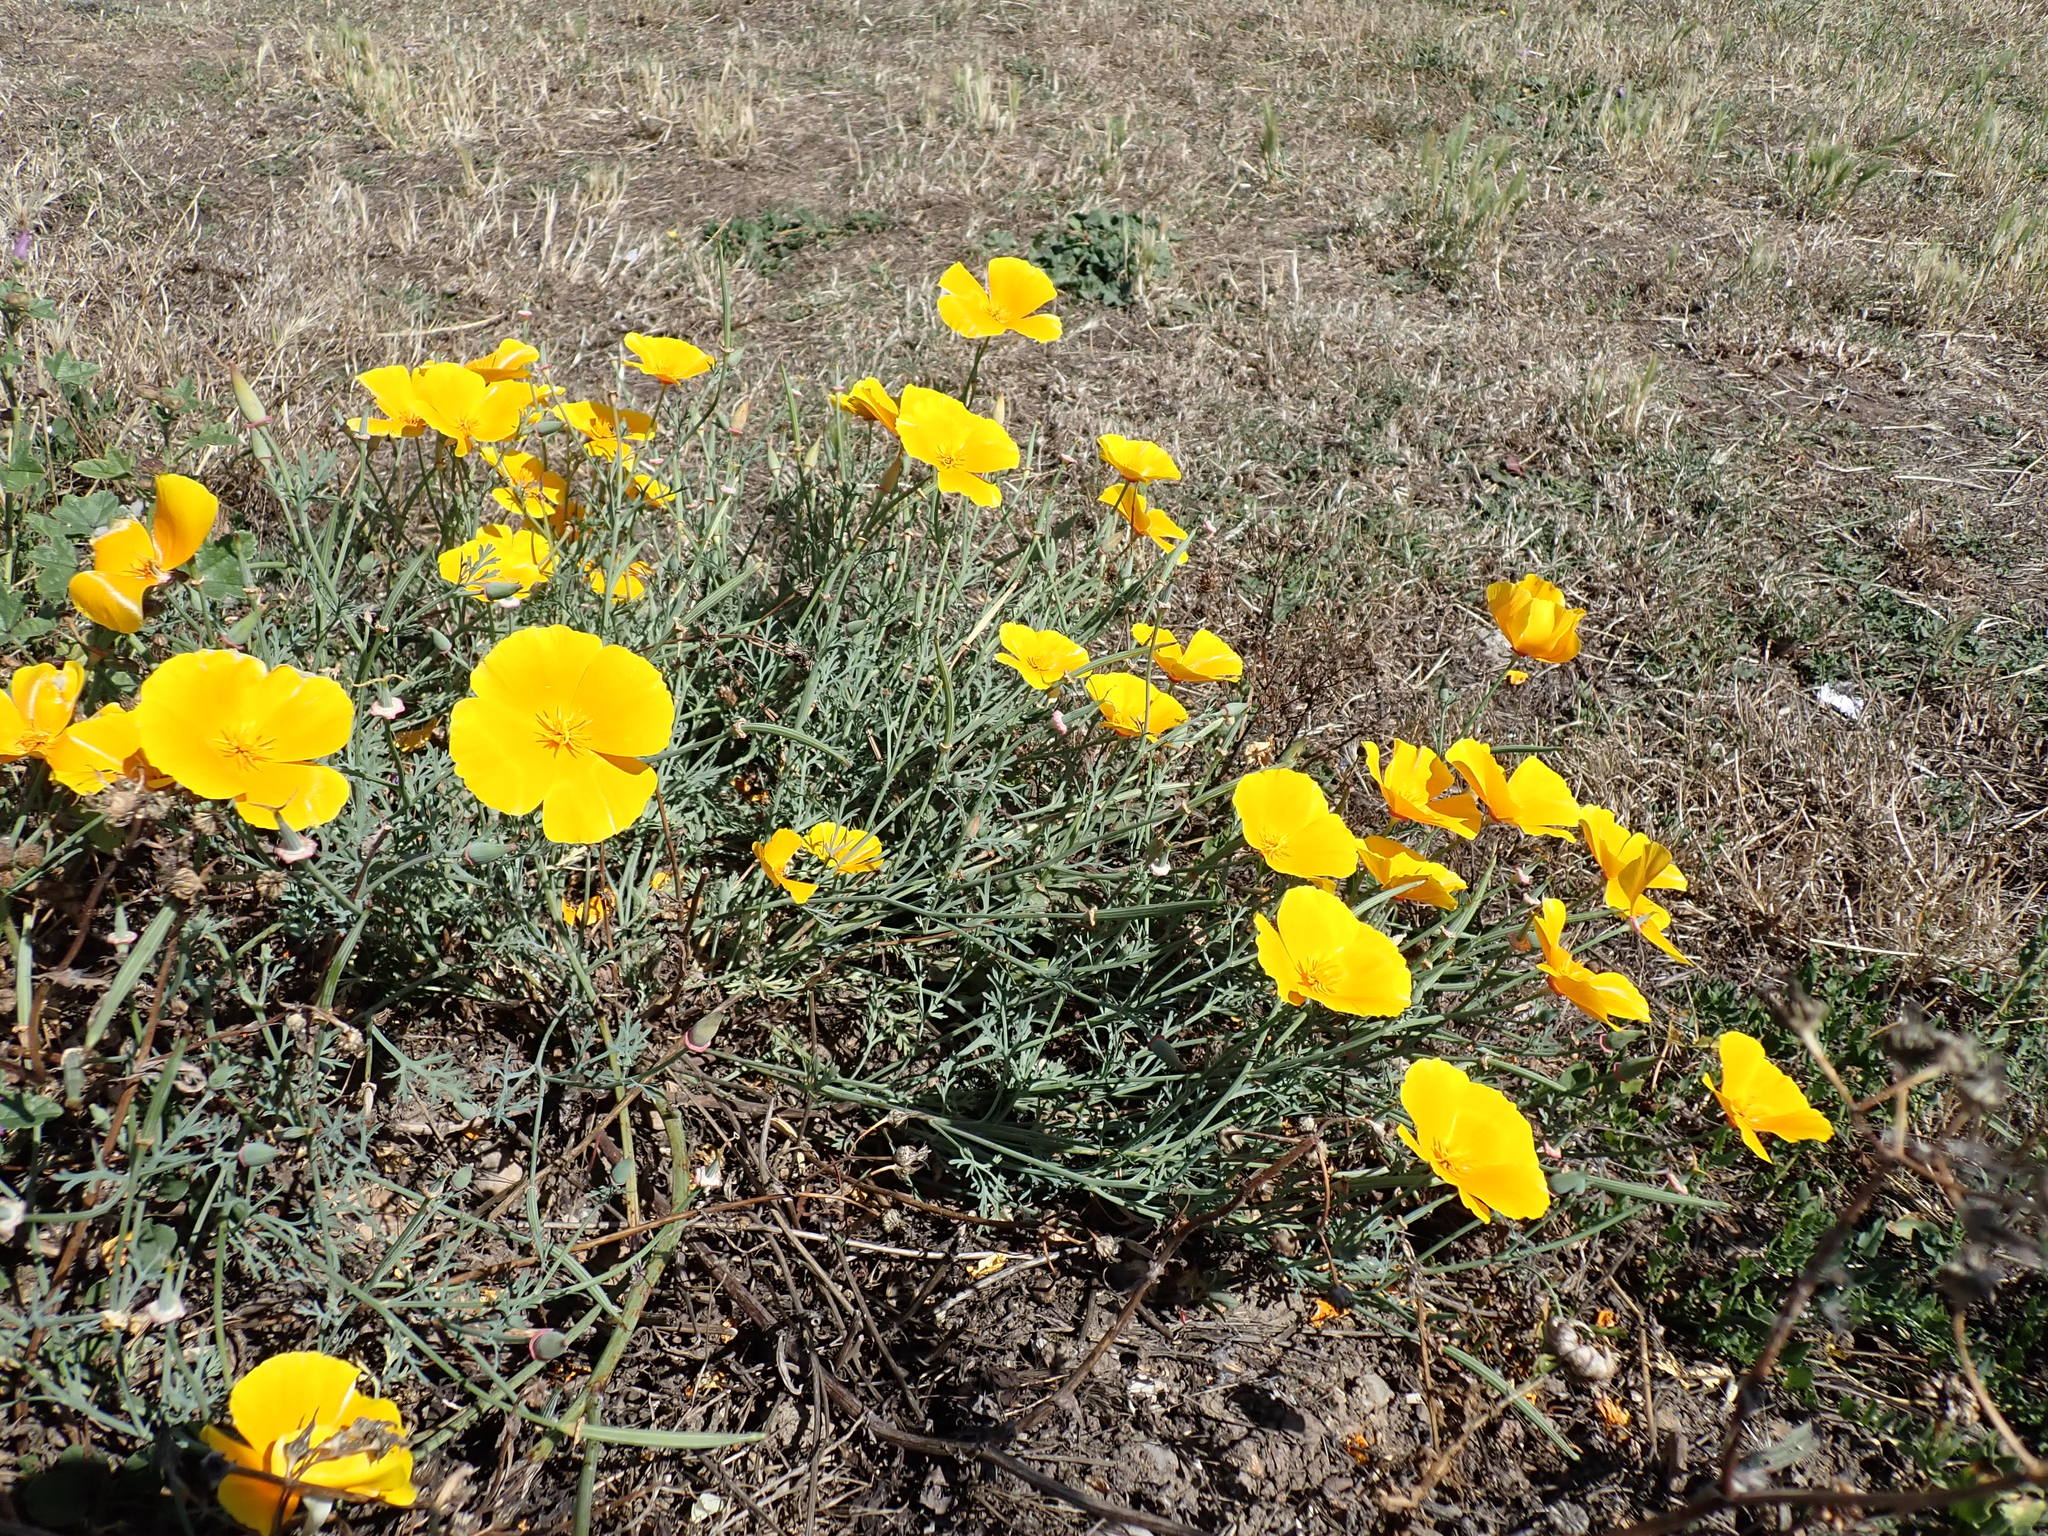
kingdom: Plantae
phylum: Tracheophyta
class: Magnoliopsida
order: Ranunculales
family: Papaveraceae
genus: Eschscholzia
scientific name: Eschscholzia californica
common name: California poppy
